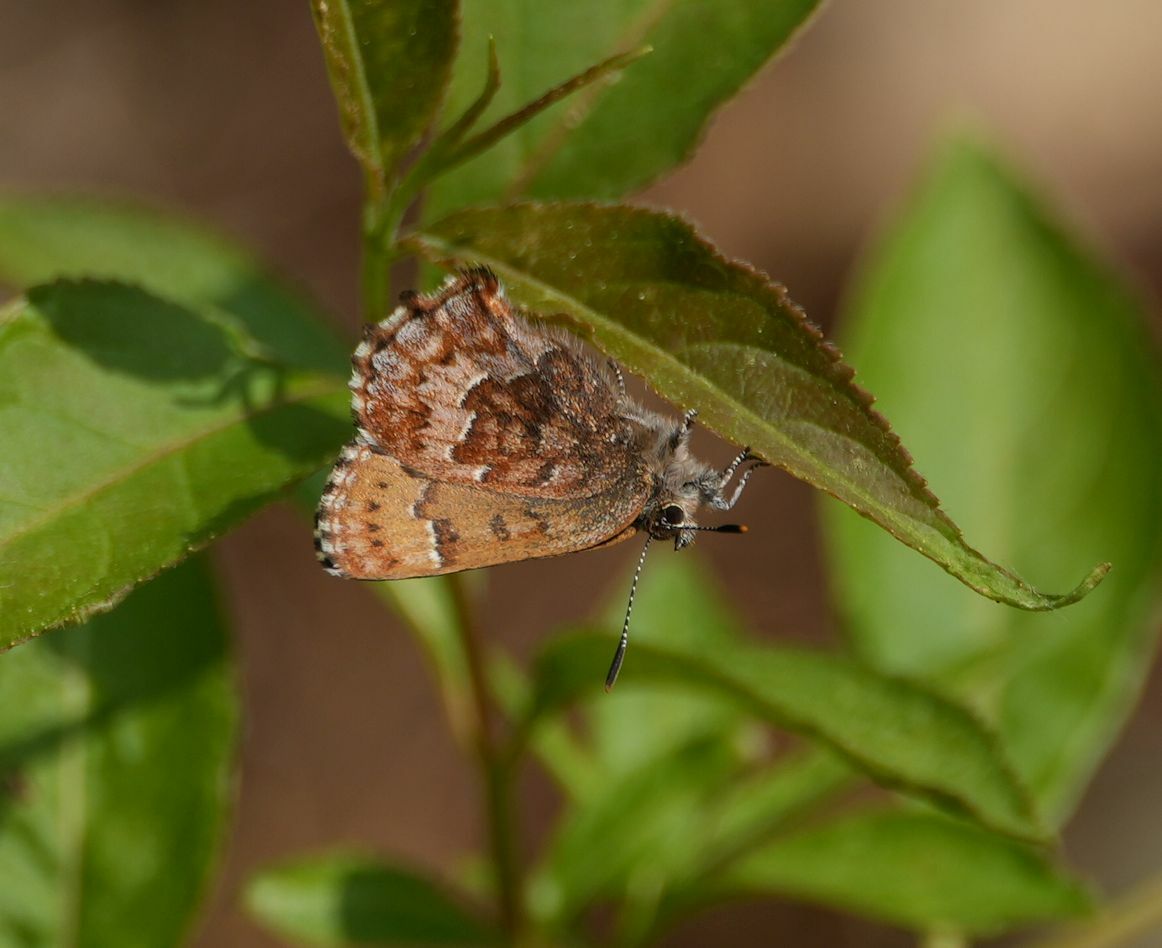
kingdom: Animalia
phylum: Arthropoda
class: Insecta
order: Lepidoptera
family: Lycaenidae
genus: Incisalia
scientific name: Incisalia niphon
